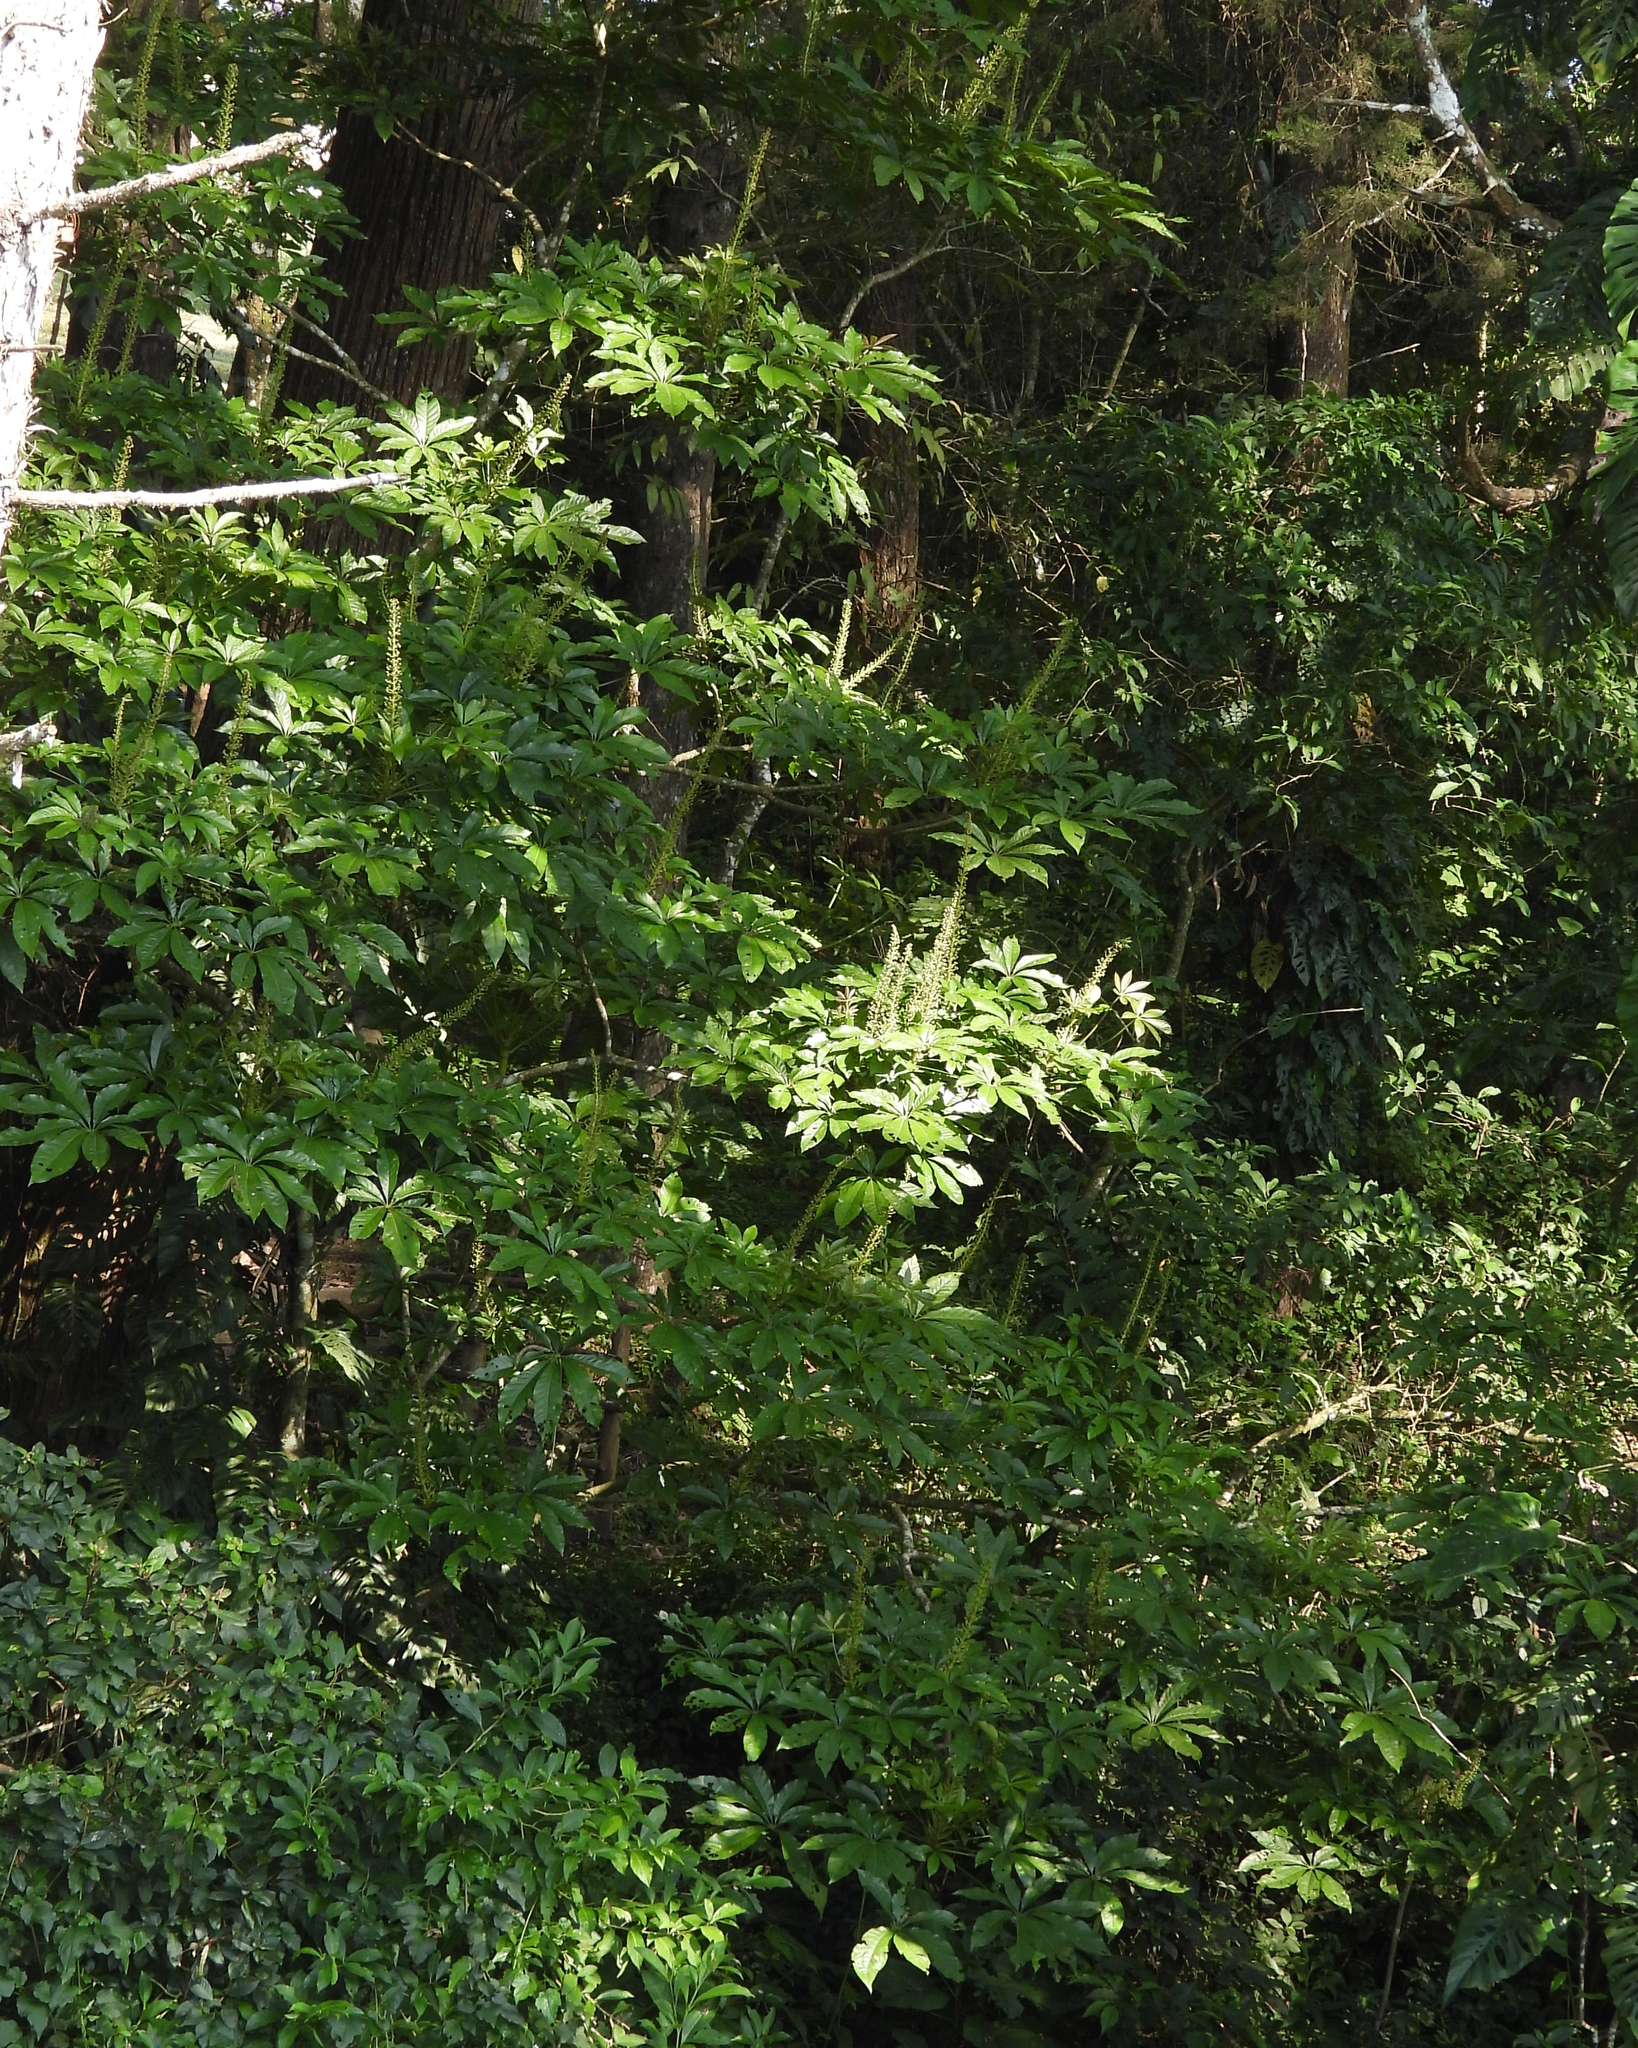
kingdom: Plantae
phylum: Tracheophyta
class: Magnoliopsida
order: Apiales
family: Araliaceae
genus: Oreopanax
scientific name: Oreopanax xalapensis
